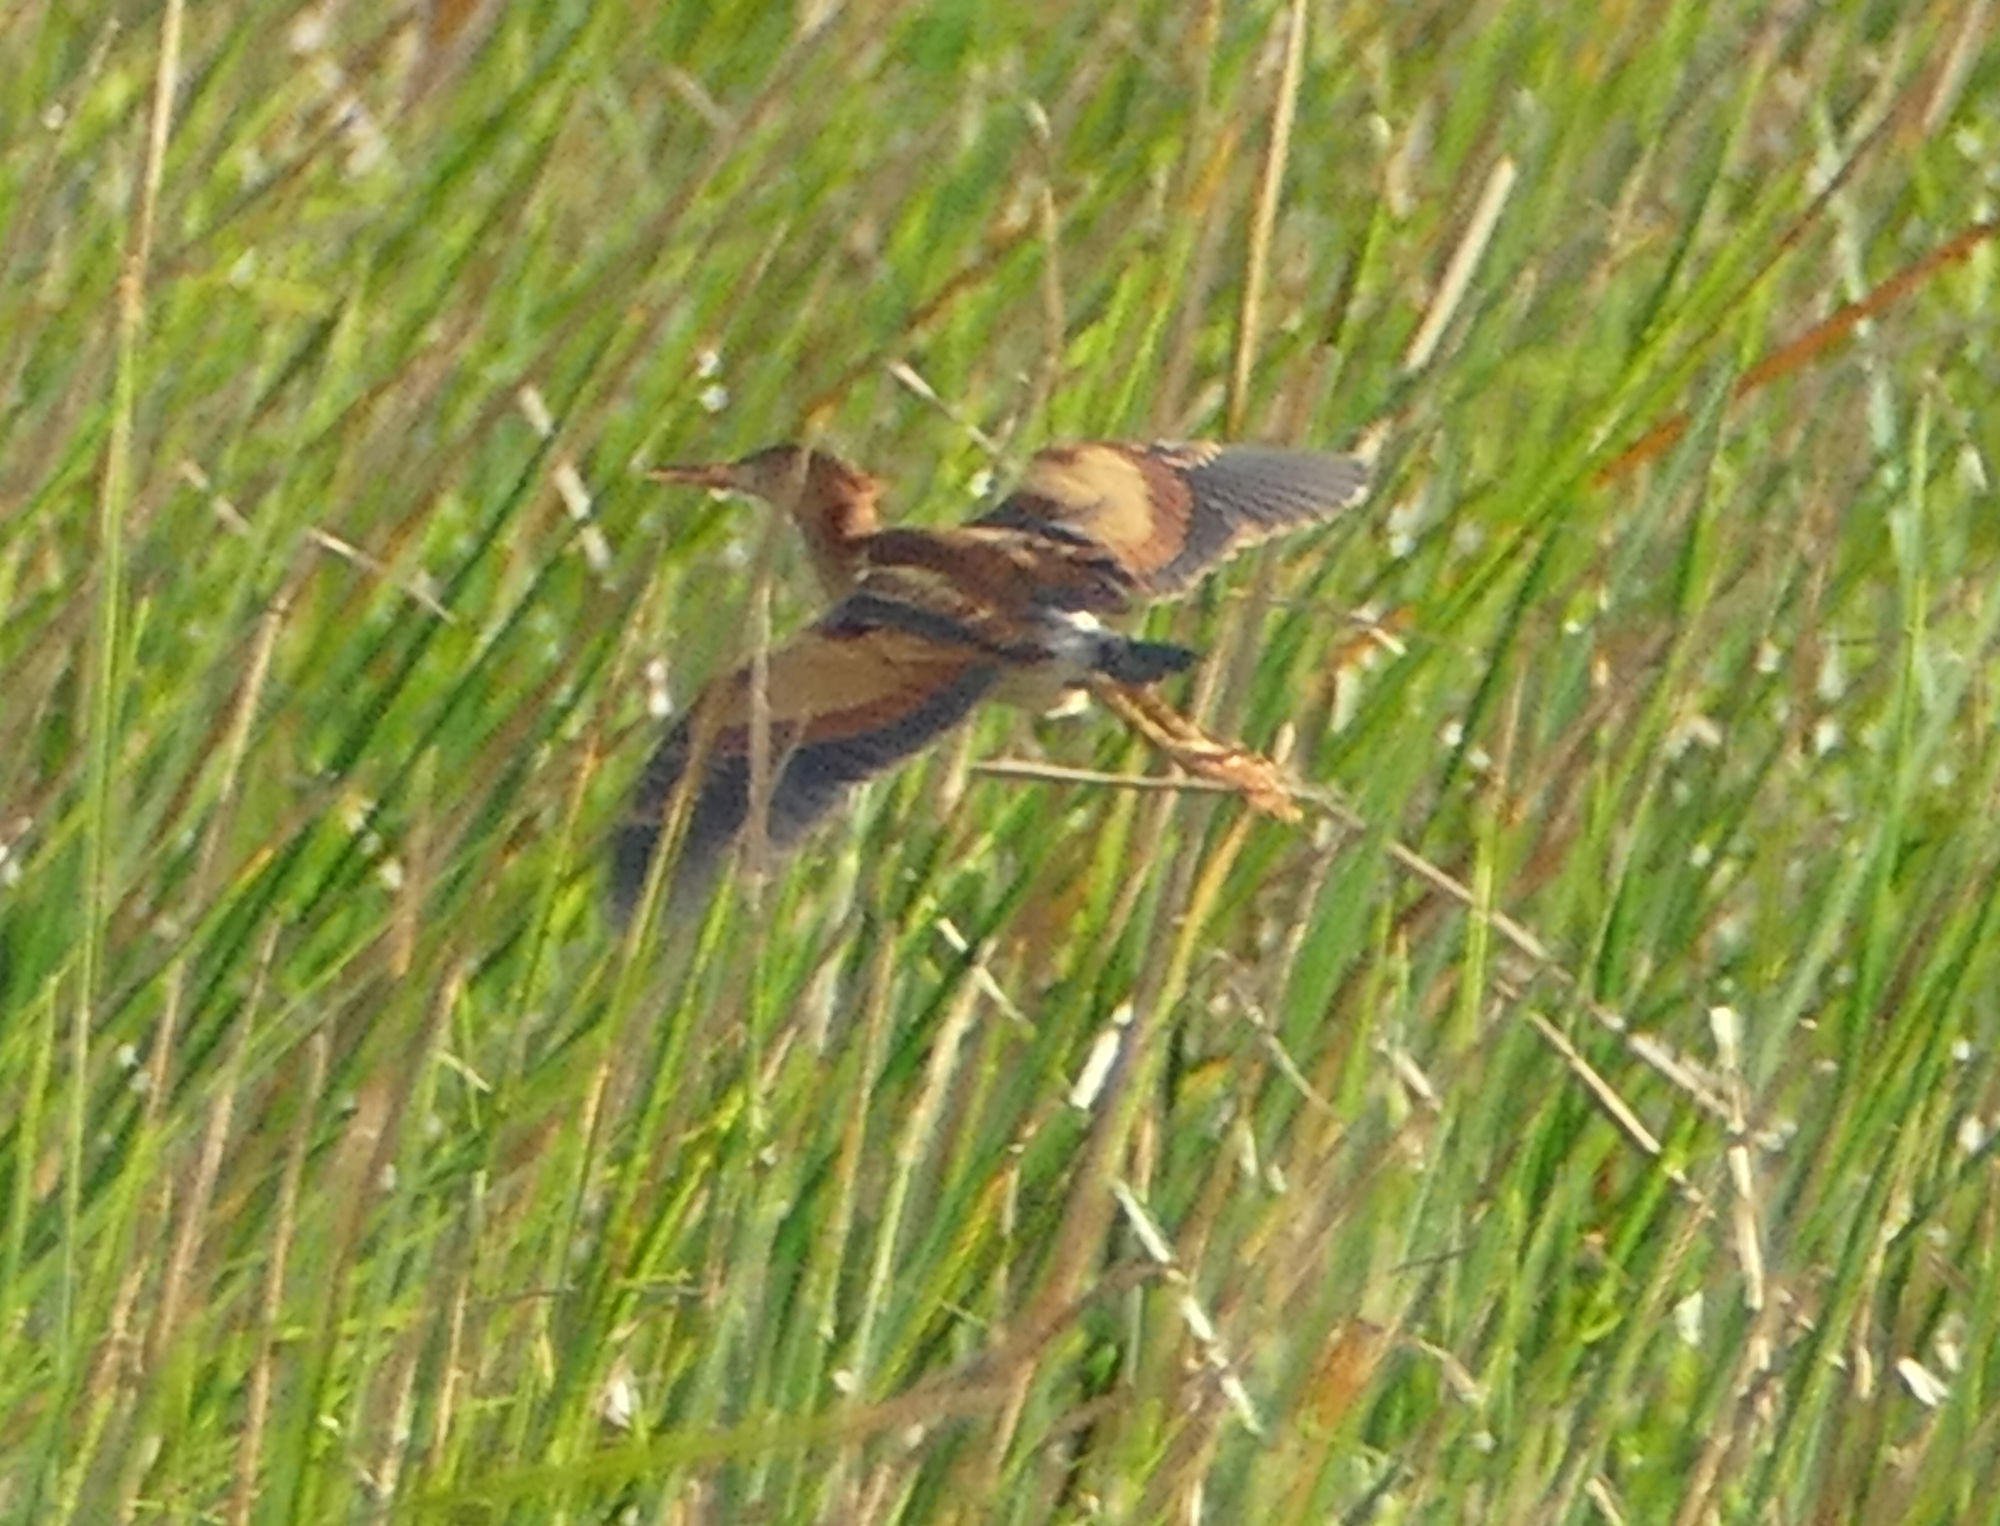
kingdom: Animalia
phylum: Chordata
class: Aves
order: Pelecaniformes
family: Ardeidae
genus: Ixobrychus
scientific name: Ixobrychus exilis
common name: Least bittern
